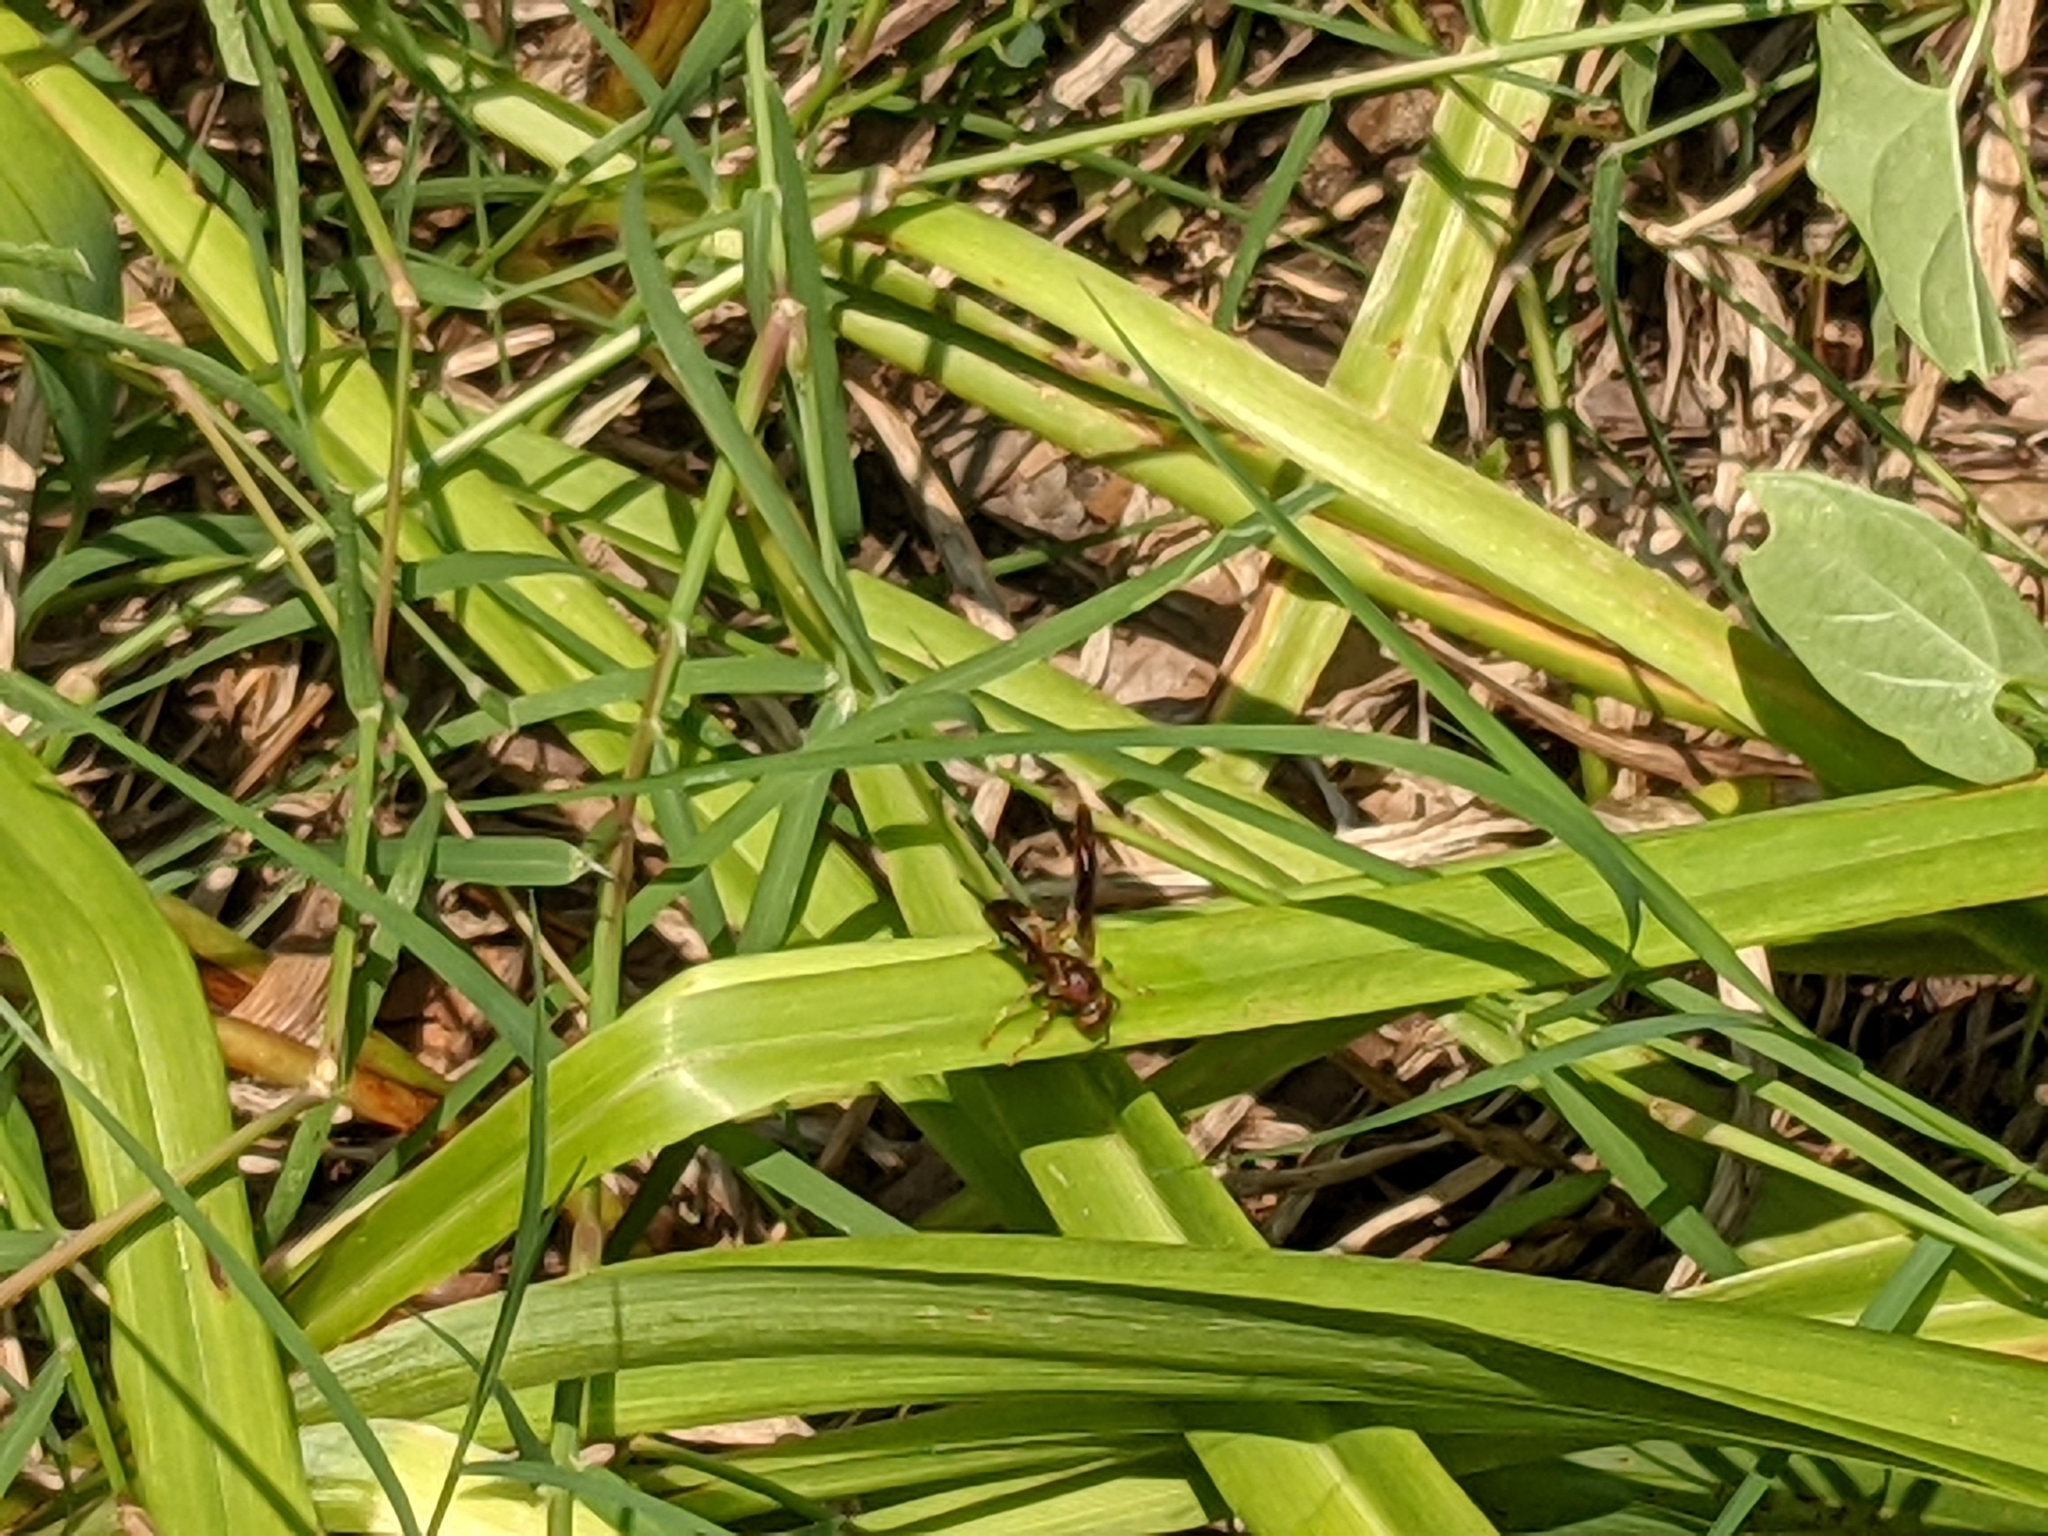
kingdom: Animalia
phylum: Arthropoda
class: Insecta
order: Hymenoptera
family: Eumenidae
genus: Polistes
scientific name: Polistes fuscatus
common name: Dark paper wasp
